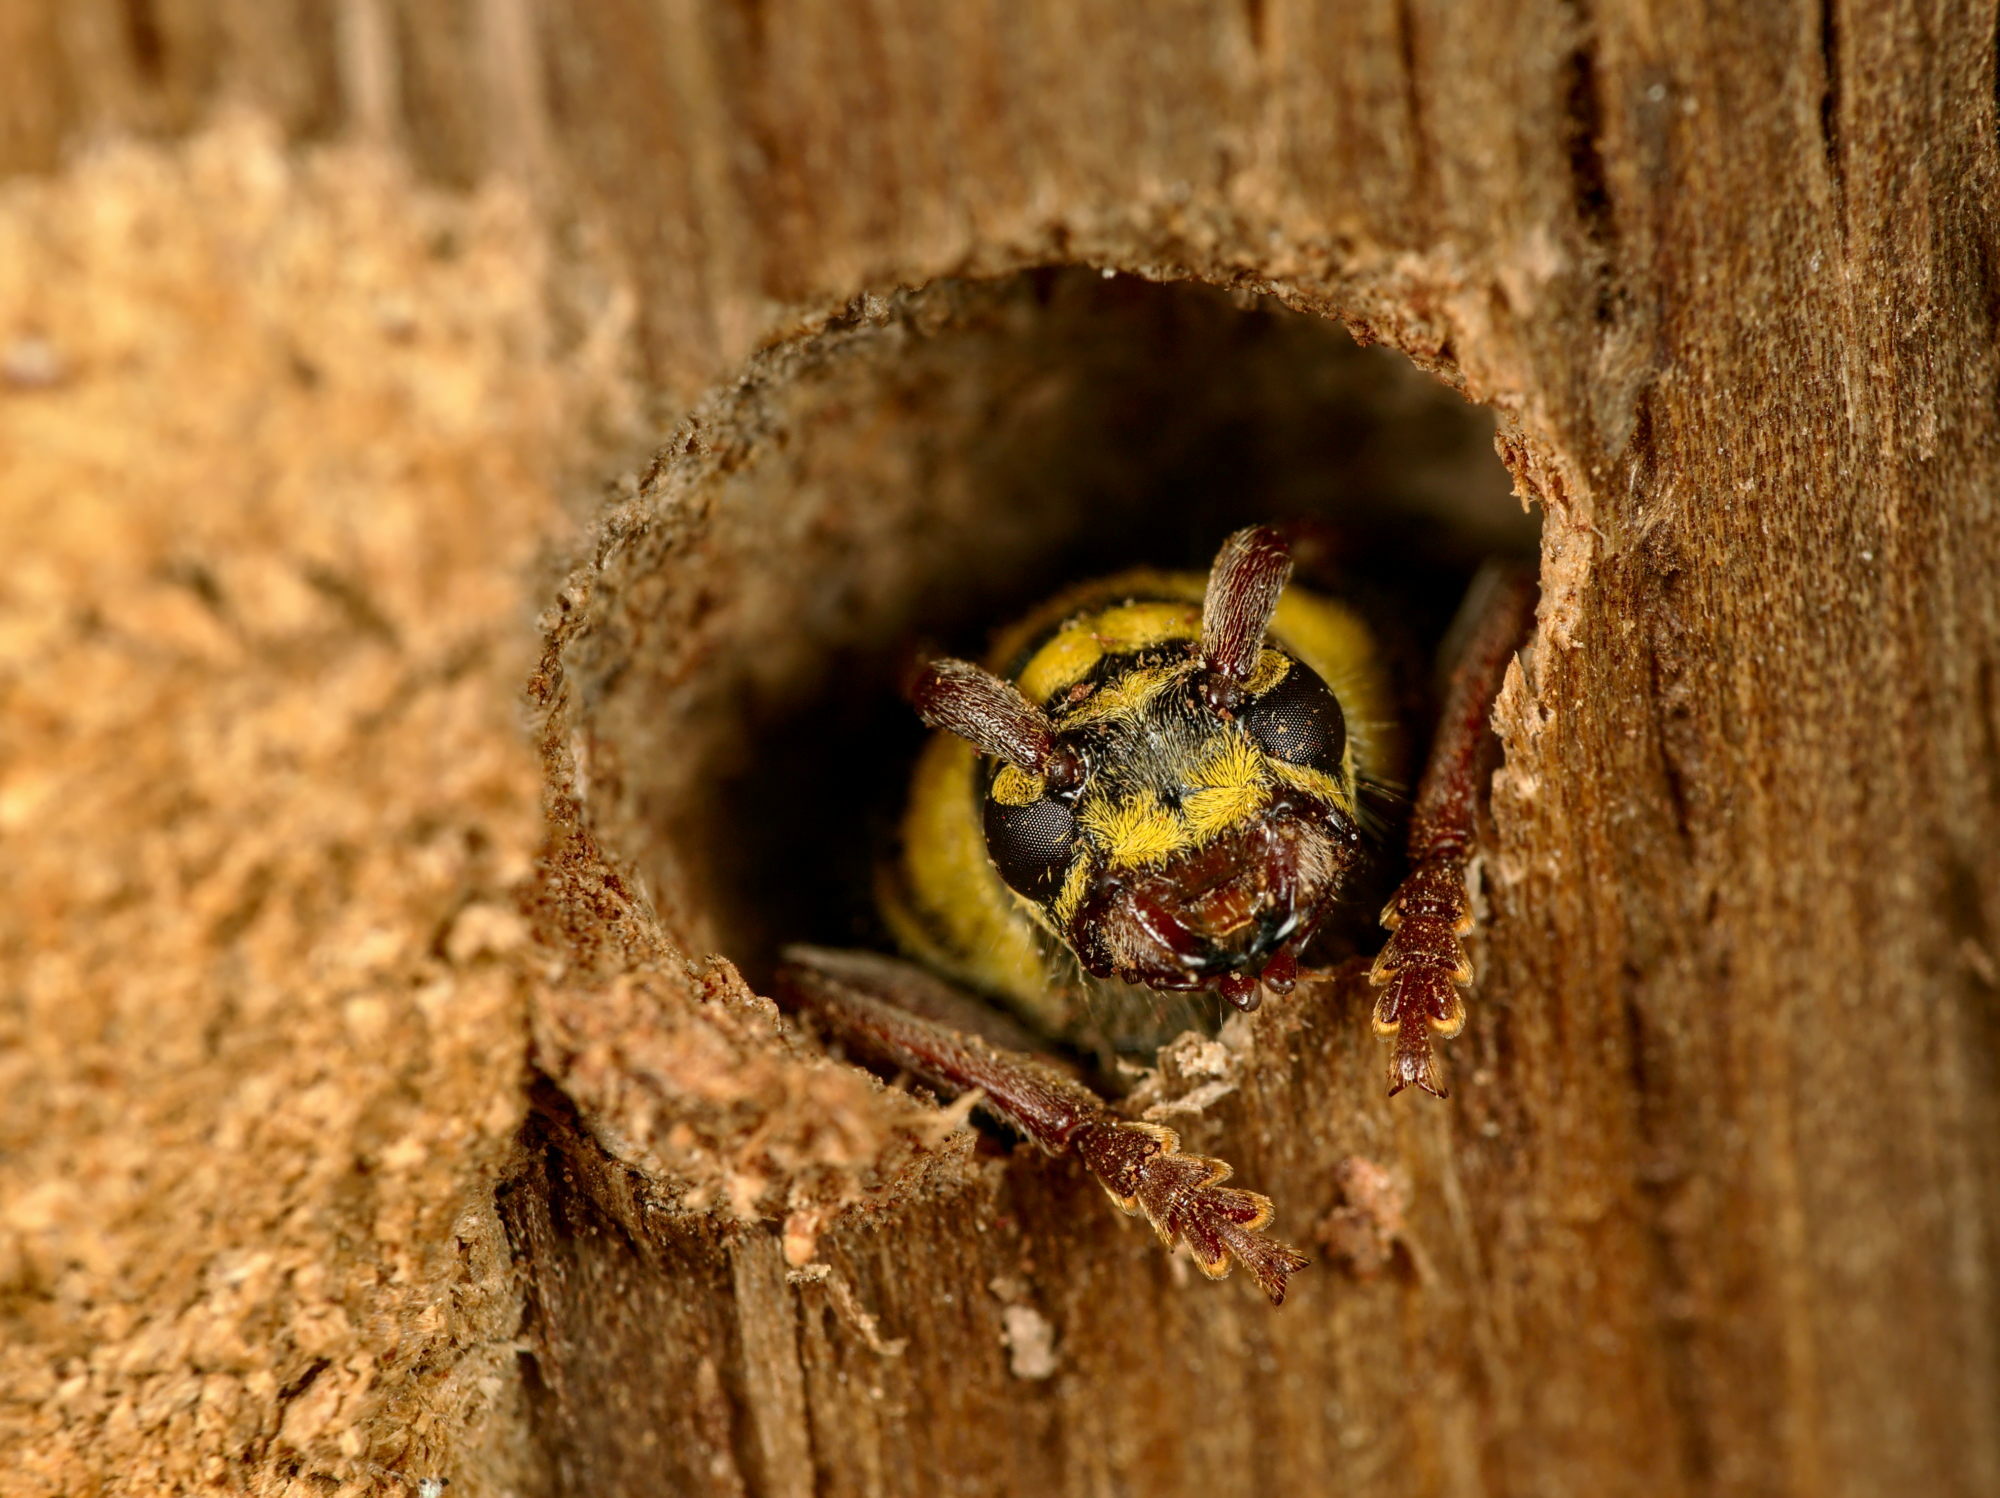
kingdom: Animalia
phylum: Arthropoda
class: Insecta
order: Coleoptera
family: Cerambycidae
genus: Plagionotus
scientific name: Plagionotus detritus
